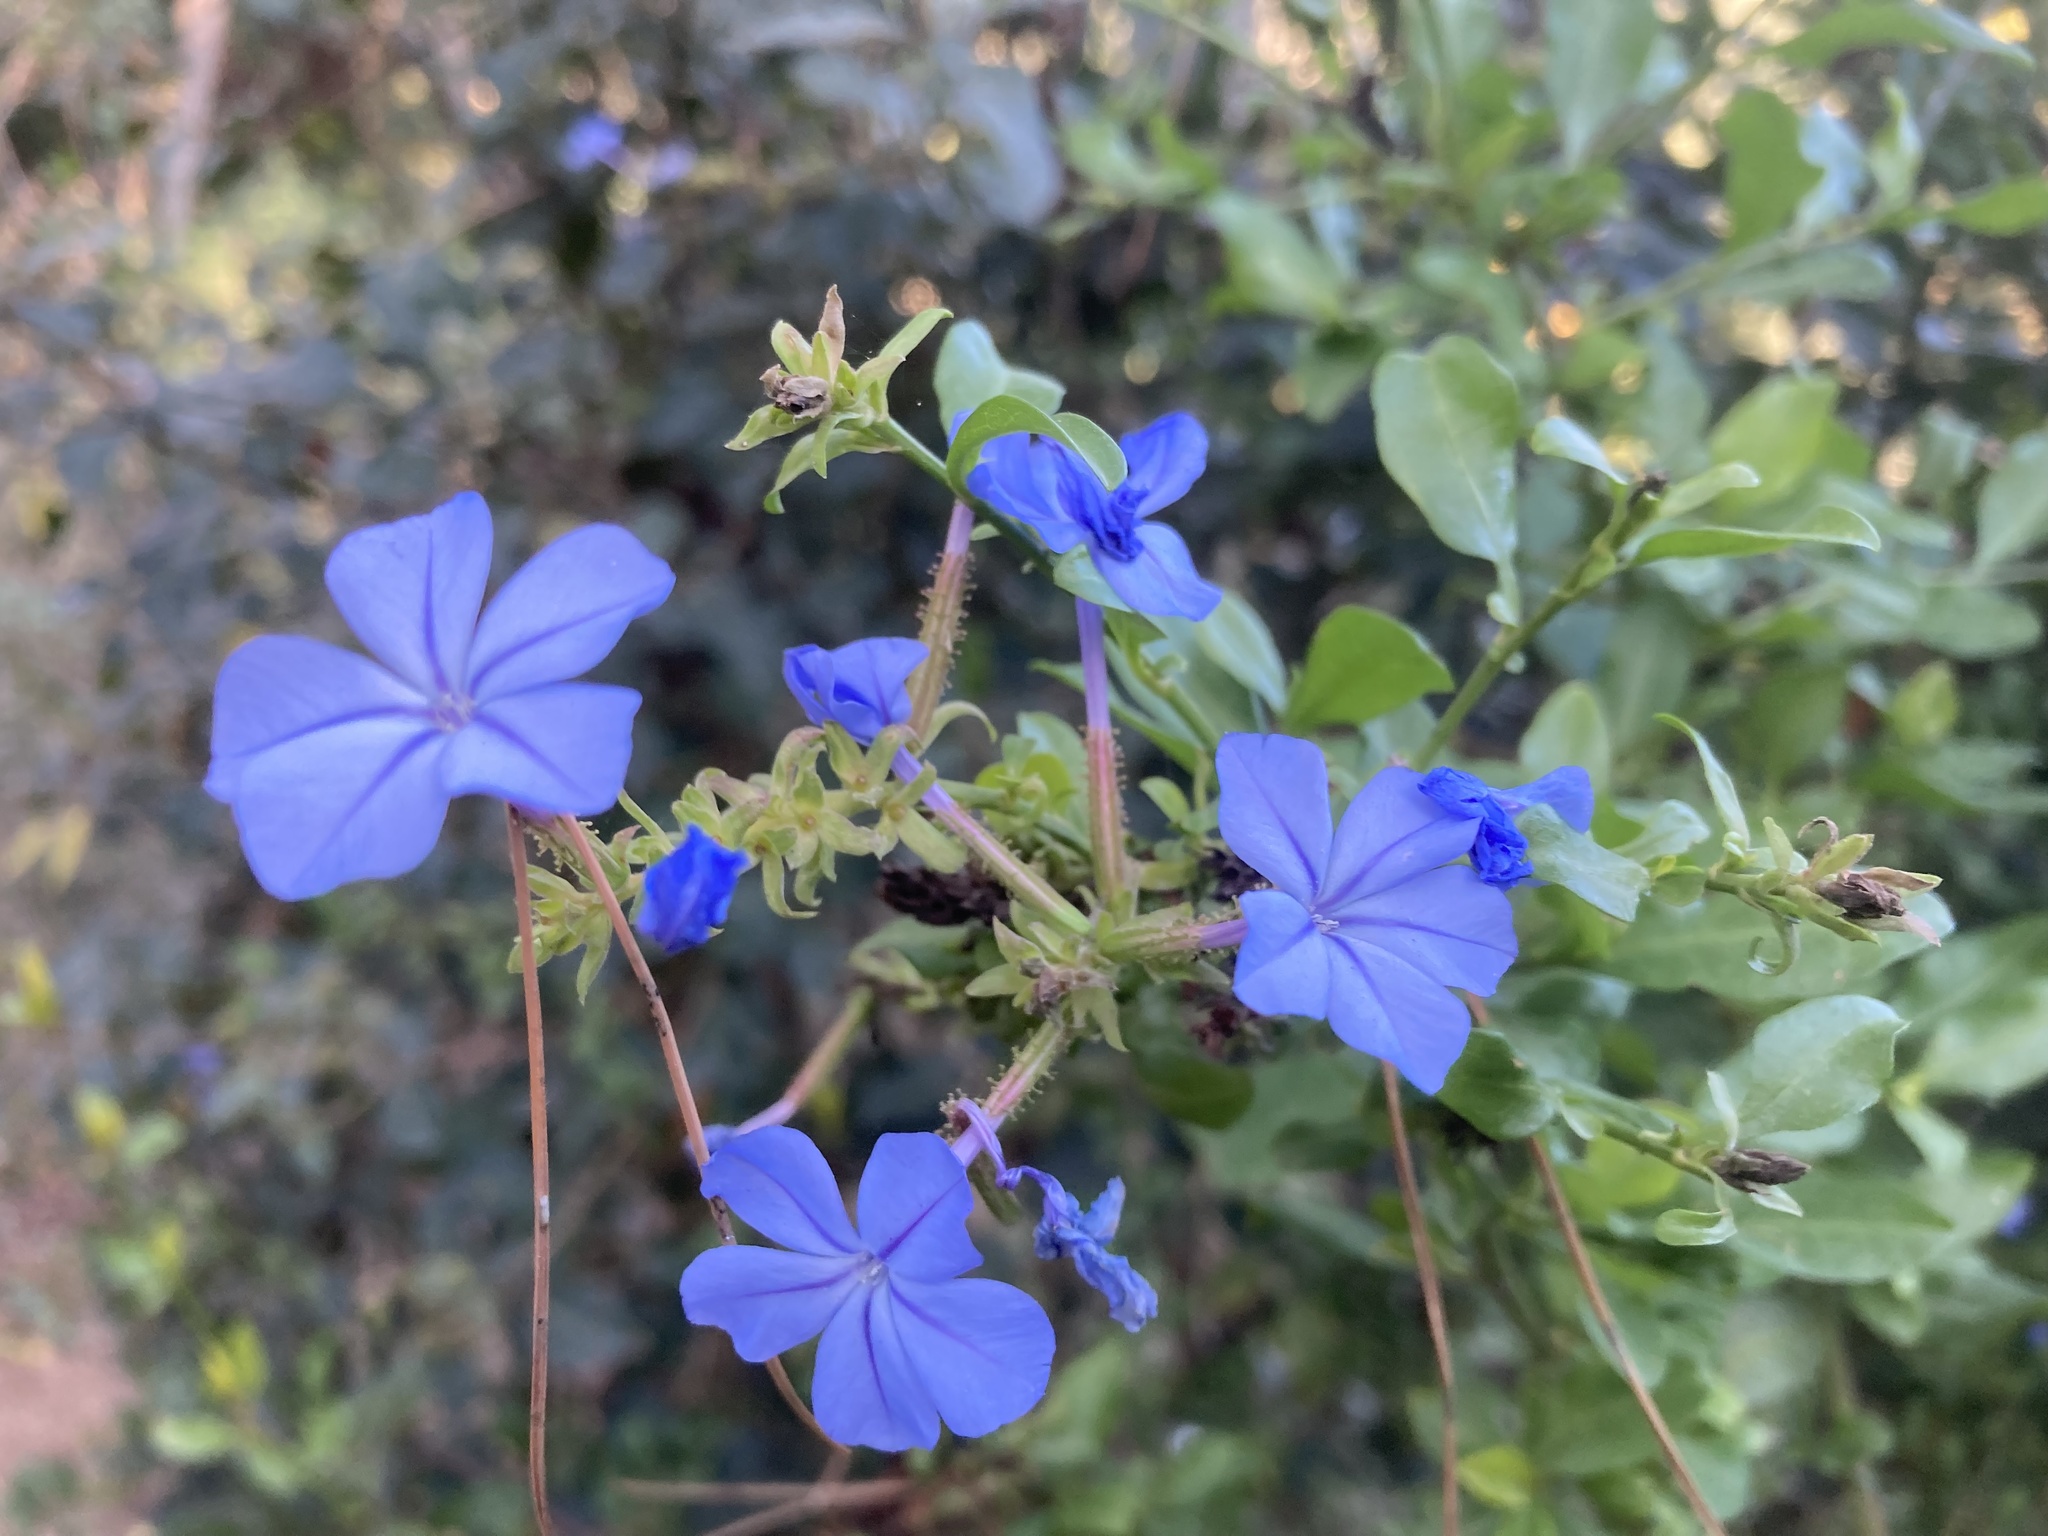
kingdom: Plantae
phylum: Tracheophyta
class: Magnoliopsida
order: Caryophyllales
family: Plumbaginaceae
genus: Plumbago
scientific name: Plumbago auriculata
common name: Cape leadwort
